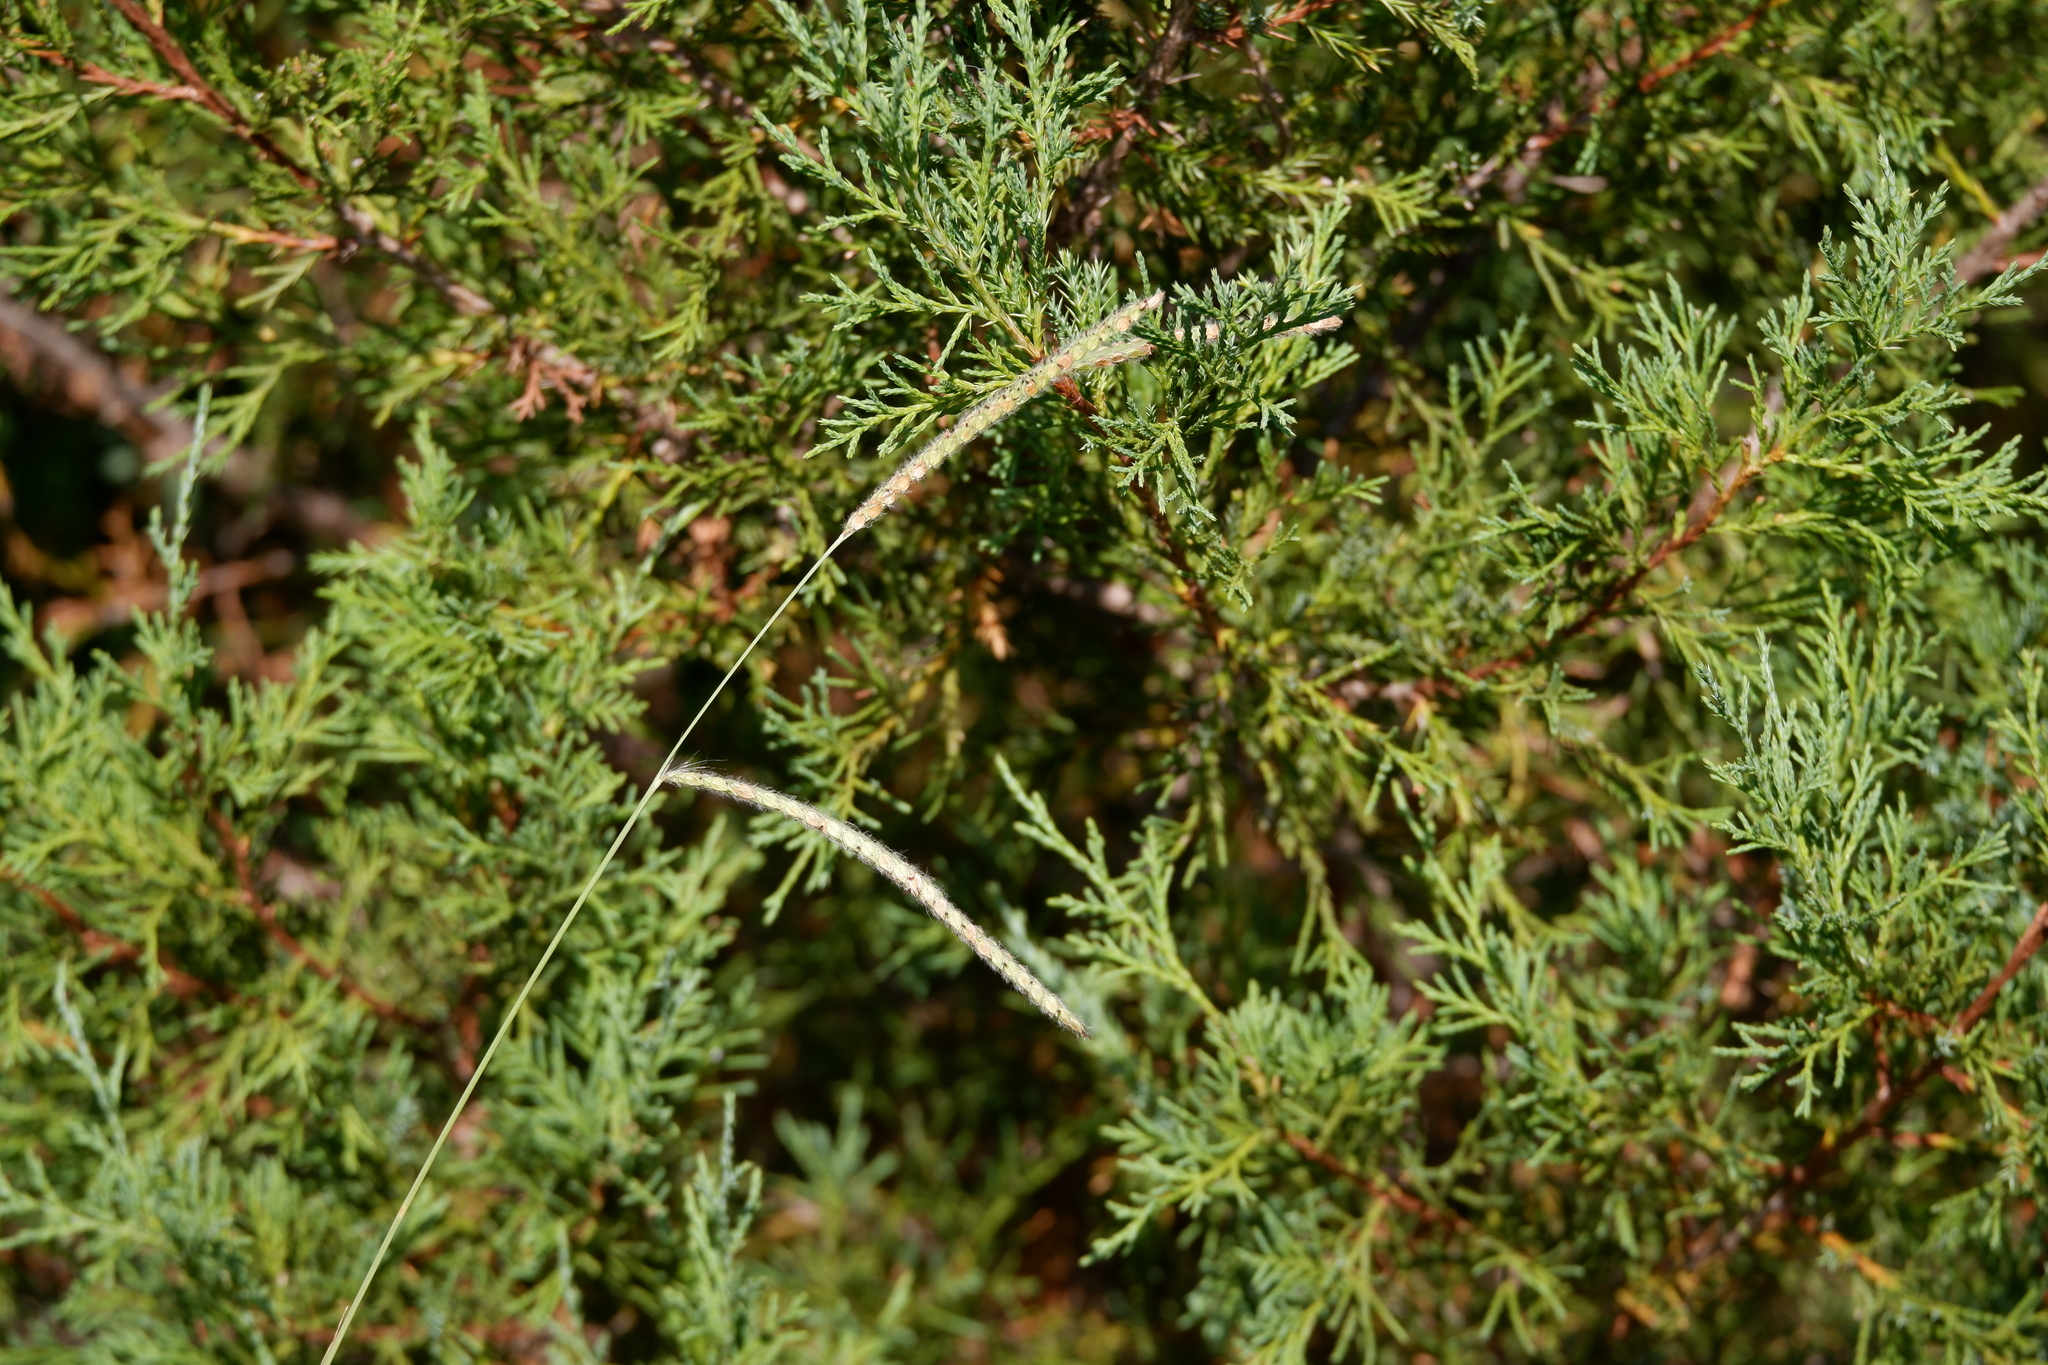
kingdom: Plantae
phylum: Tracheophyta
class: Liliopsida
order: Poales
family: Poaceae
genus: Paspalum
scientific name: Paspalum dilatatum
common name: Dallisgrass
